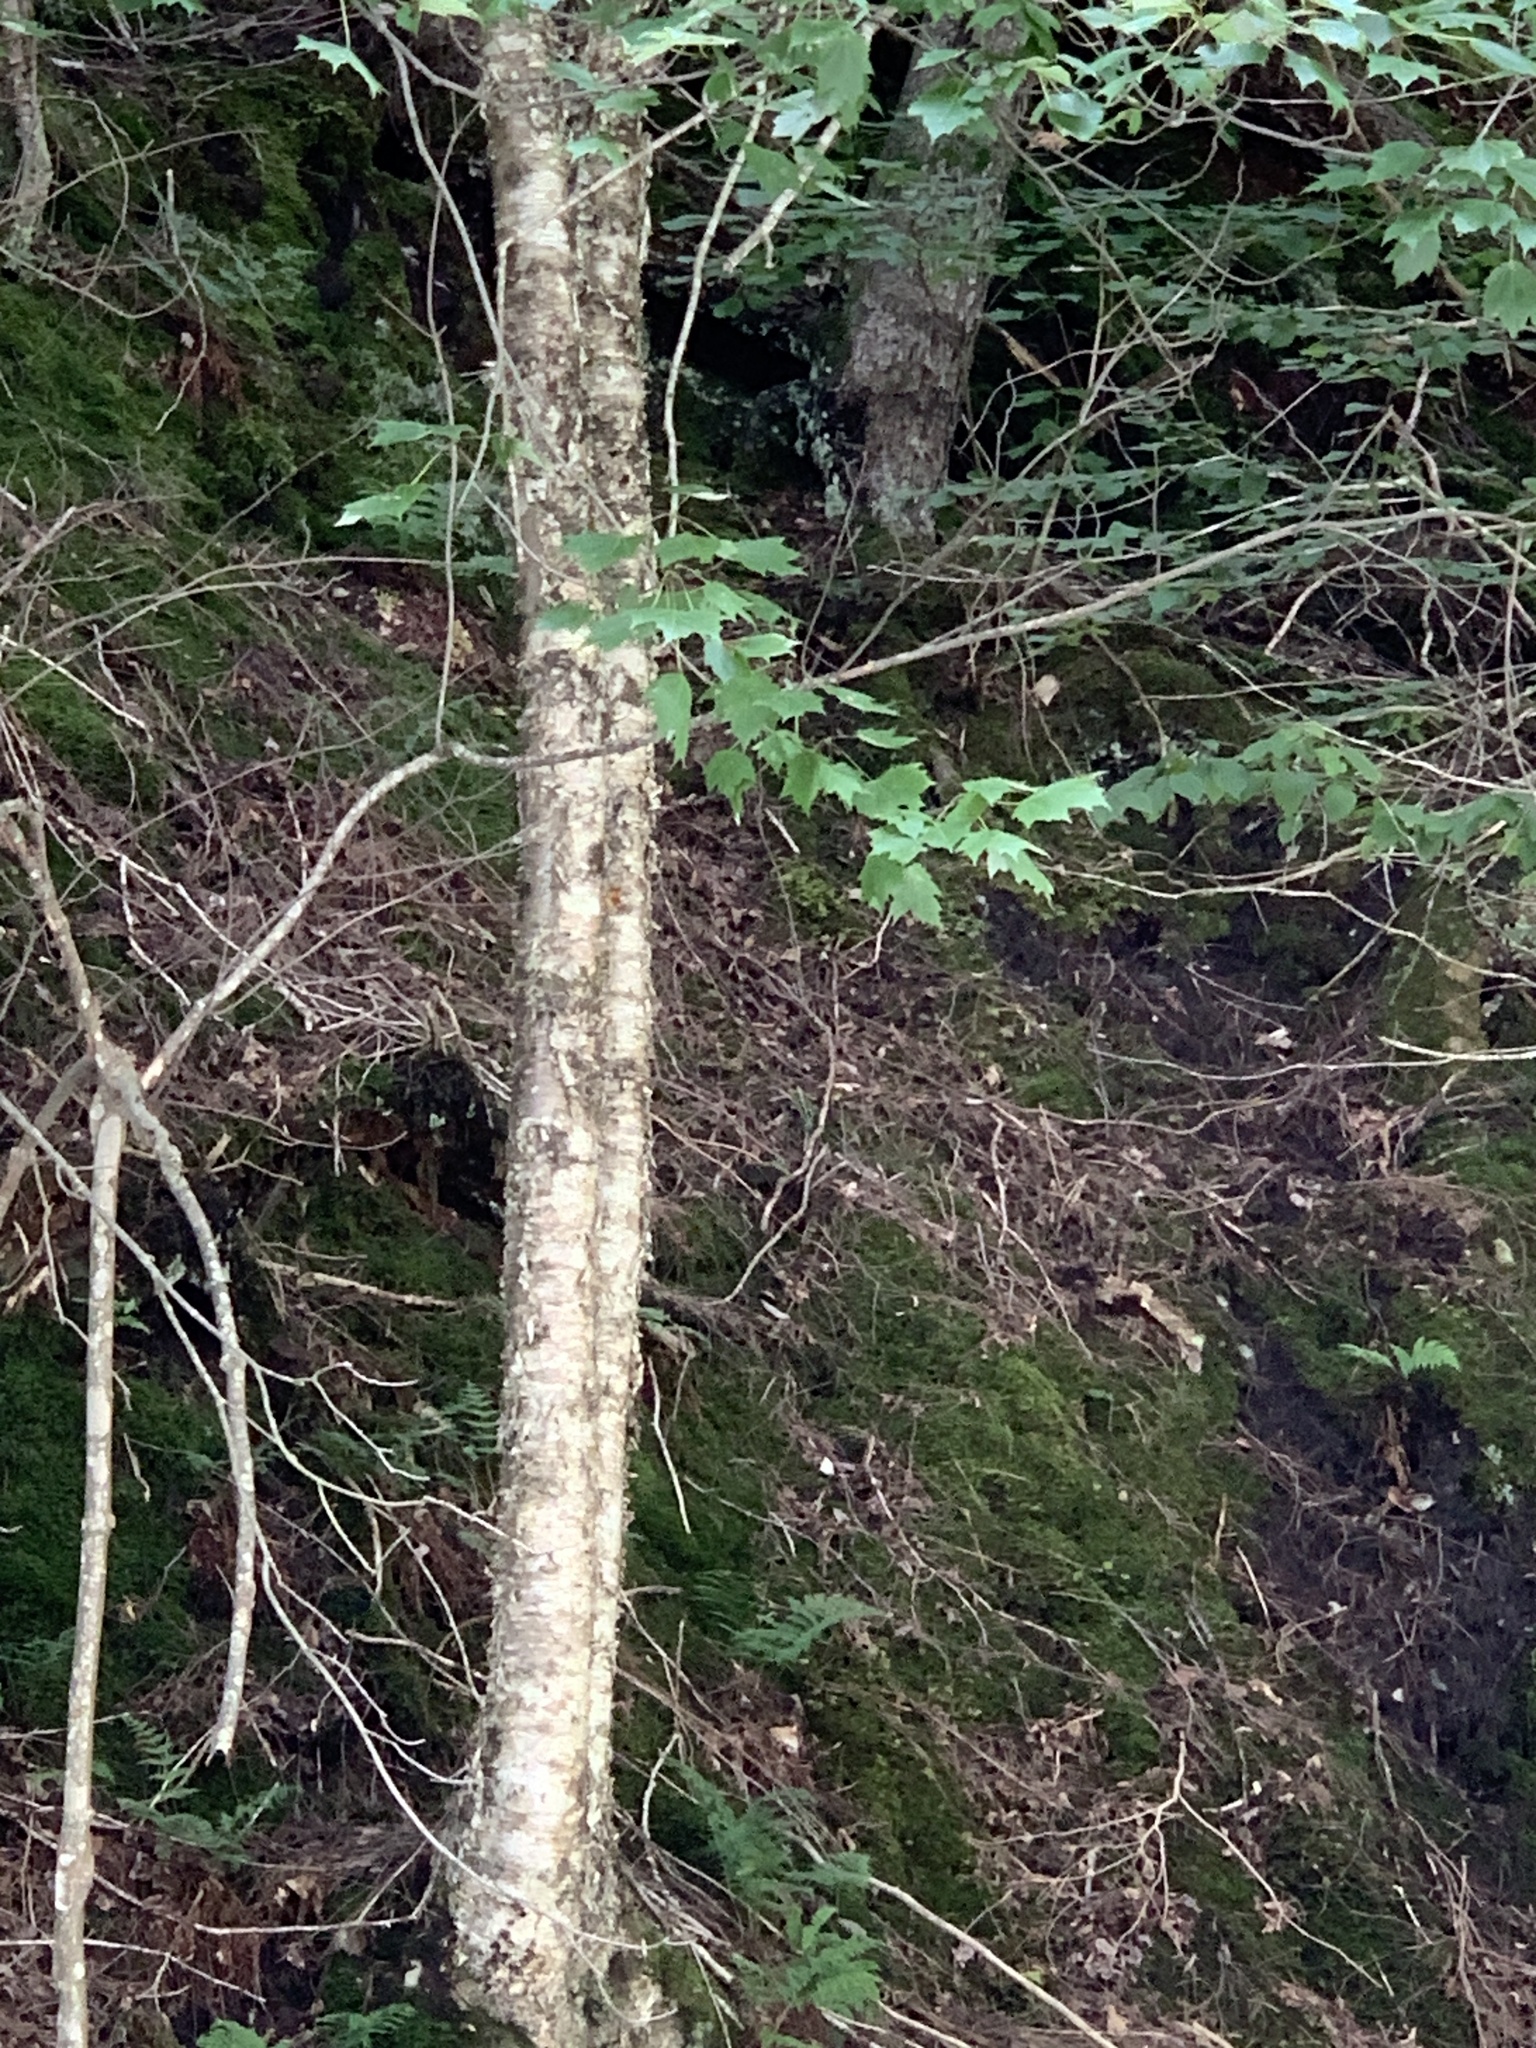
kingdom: Plantae
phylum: Tracheophyta
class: Magnoliopsida
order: Fagales
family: Betulaceae
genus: Betula
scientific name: Betula alleghaniensis
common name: Yellow birch
